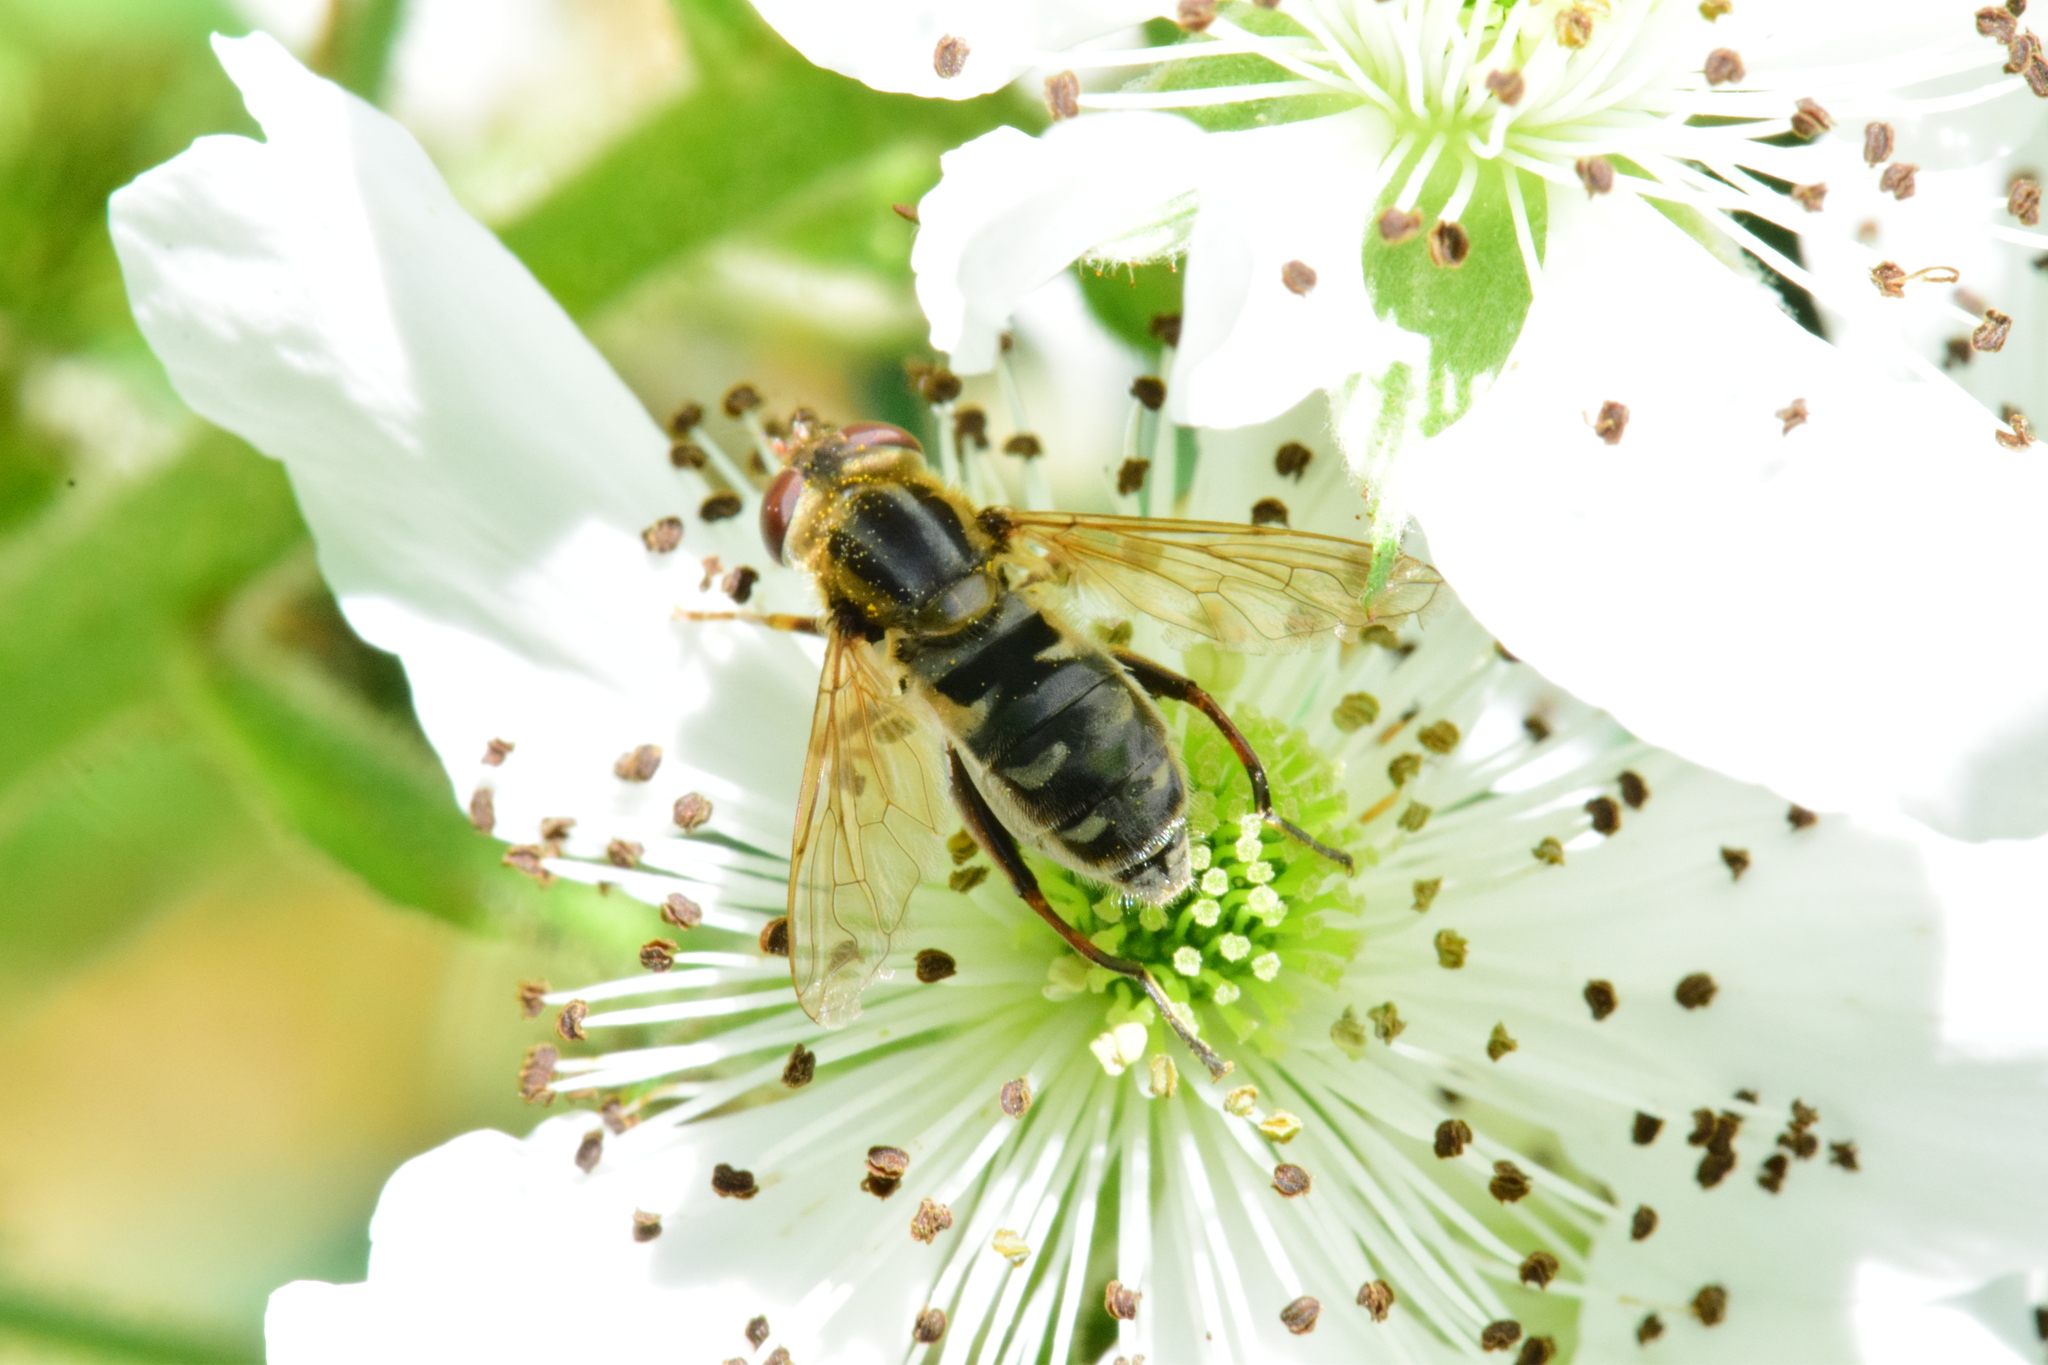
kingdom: Animalia
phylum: Arthropoda
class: Insecta
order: Diptera
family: Syrphidae
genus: Anasimyia
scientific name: Anasimyia bilinearis
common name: Two-lined swamp fly
